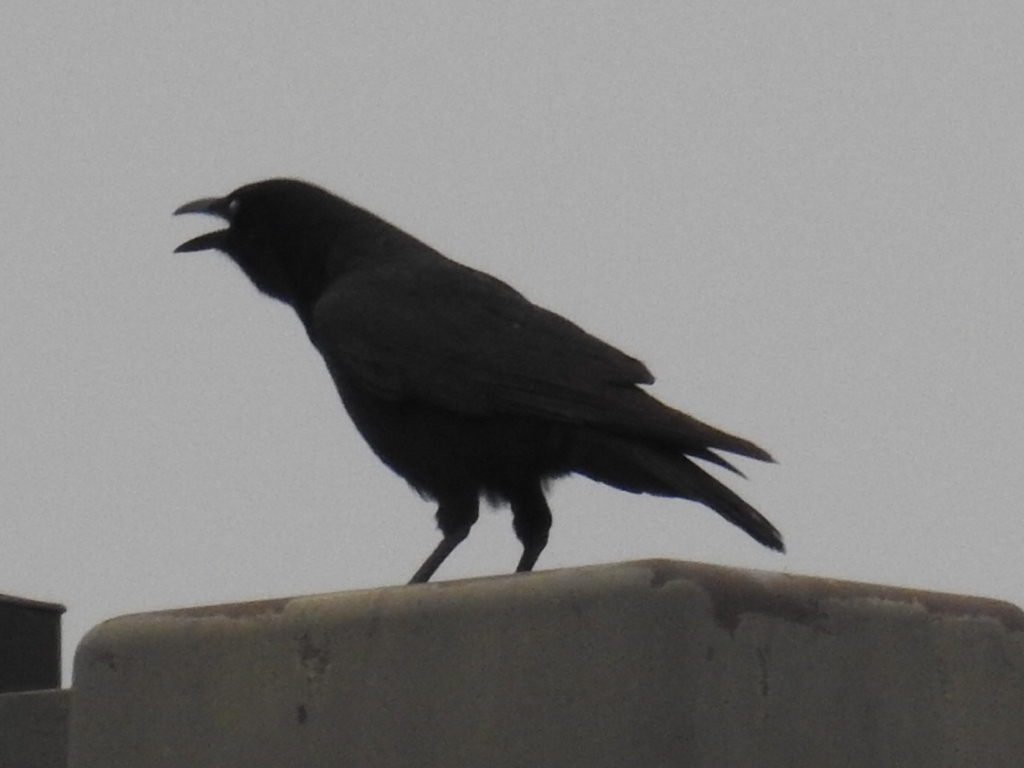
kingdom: Animalia
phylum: Chordata
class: Aves
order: Passeriformes
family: Corvidae
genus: Corvus
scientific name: Corvus brachyrhynchos
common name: American crow
